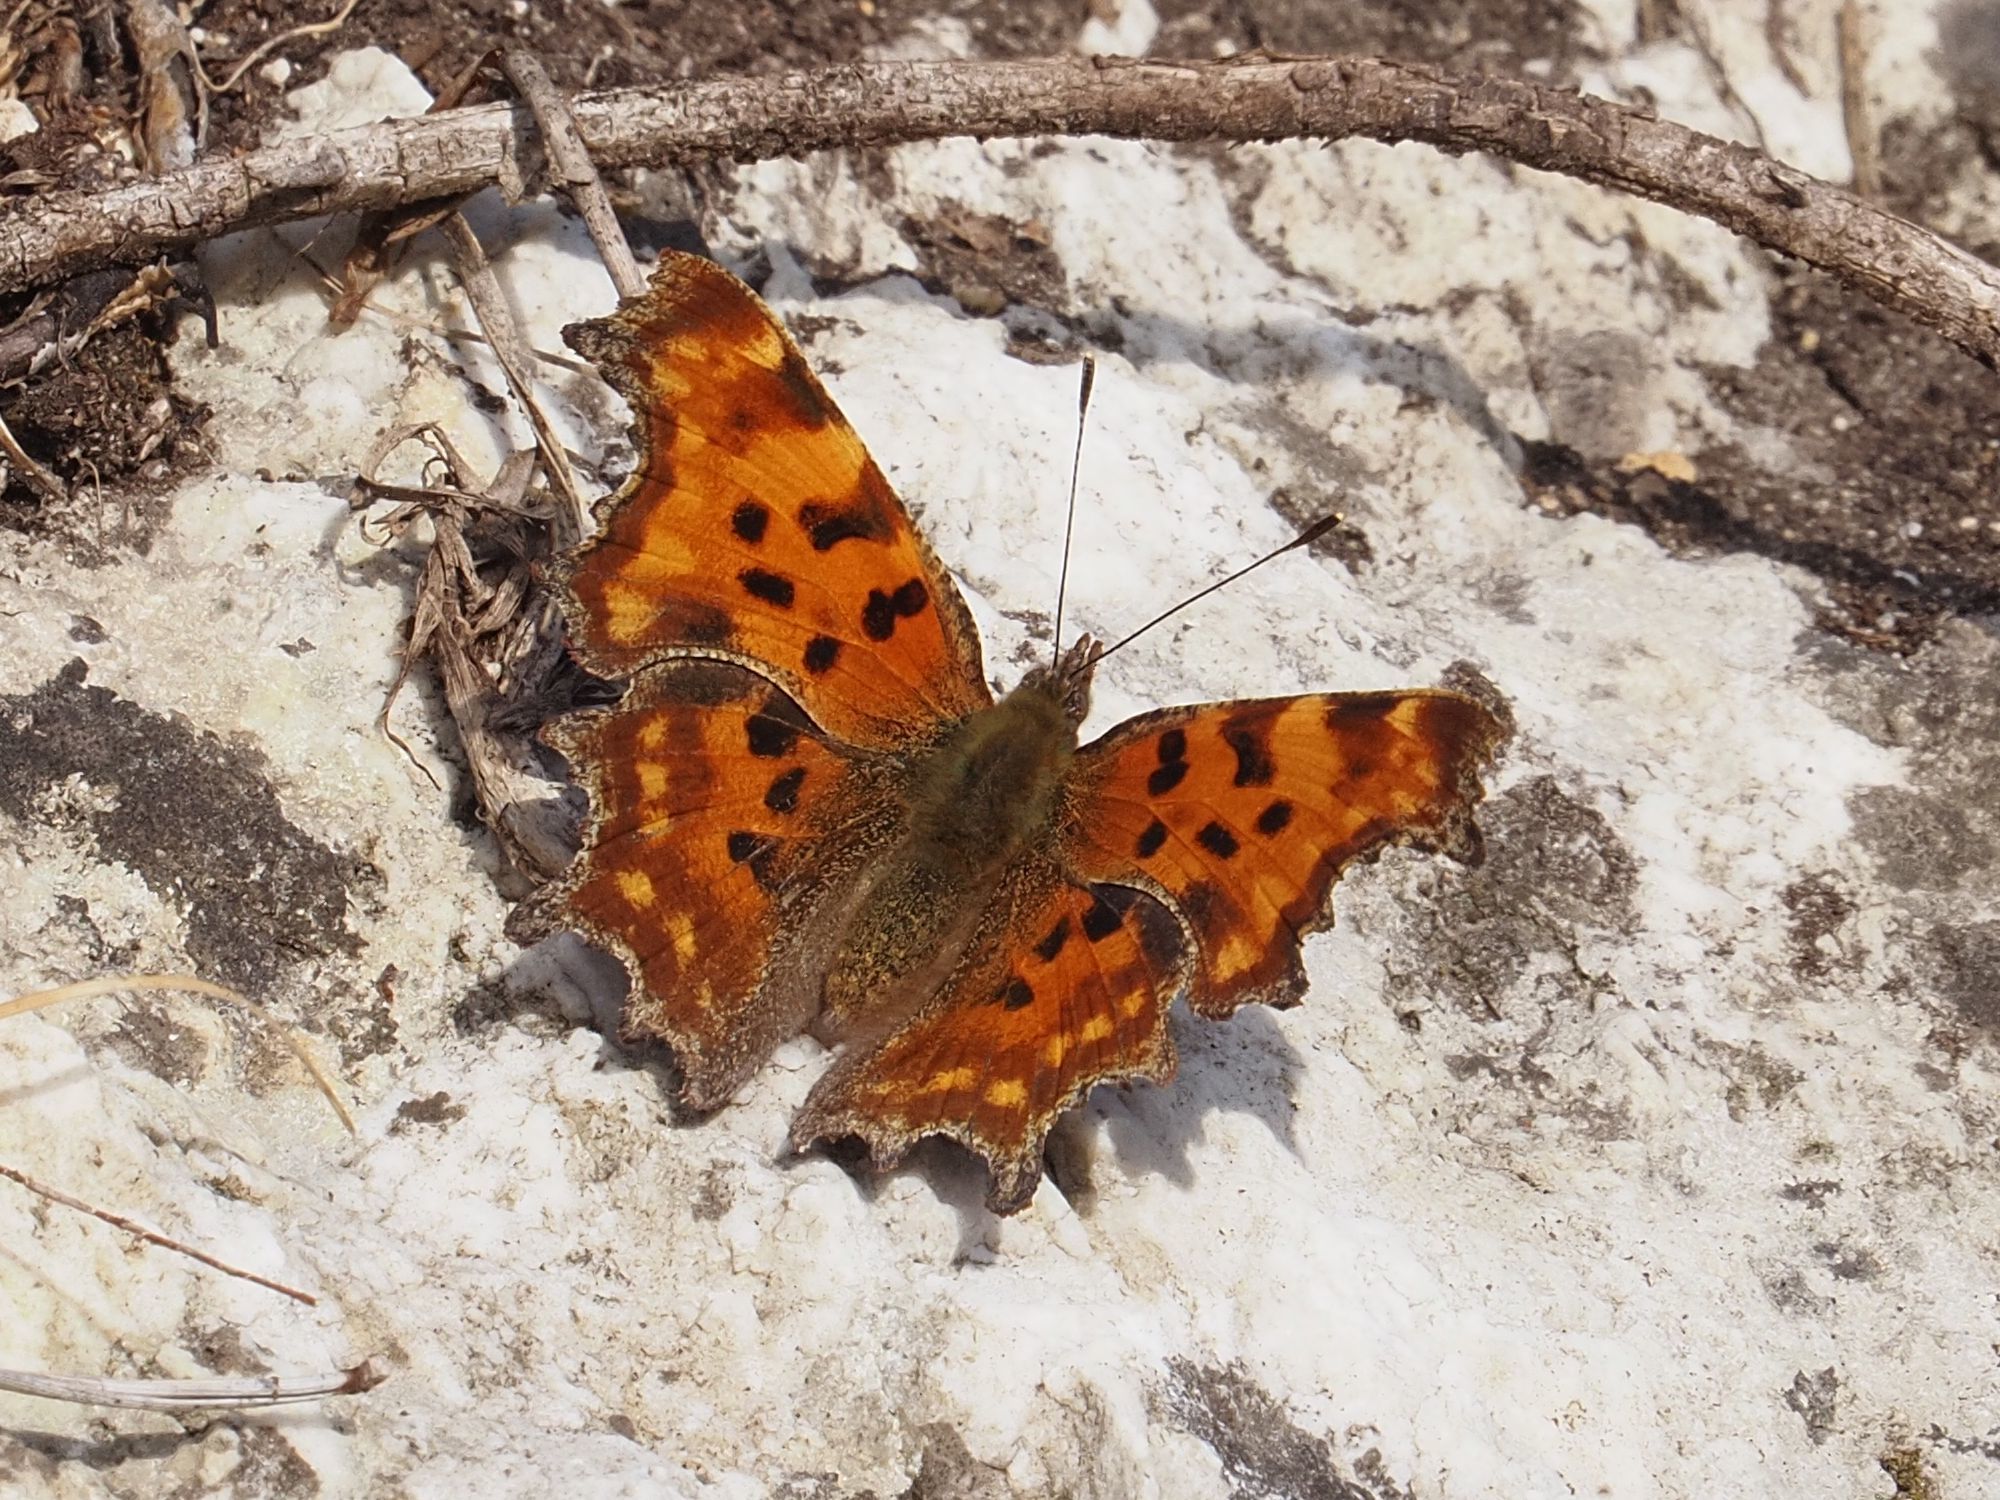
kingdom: Animalia
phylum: Arthropoda
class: Insecta
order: Lepidoptera
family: Nymphalidae
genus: Polygonia
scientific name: Polygonia c-album
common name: Comma
